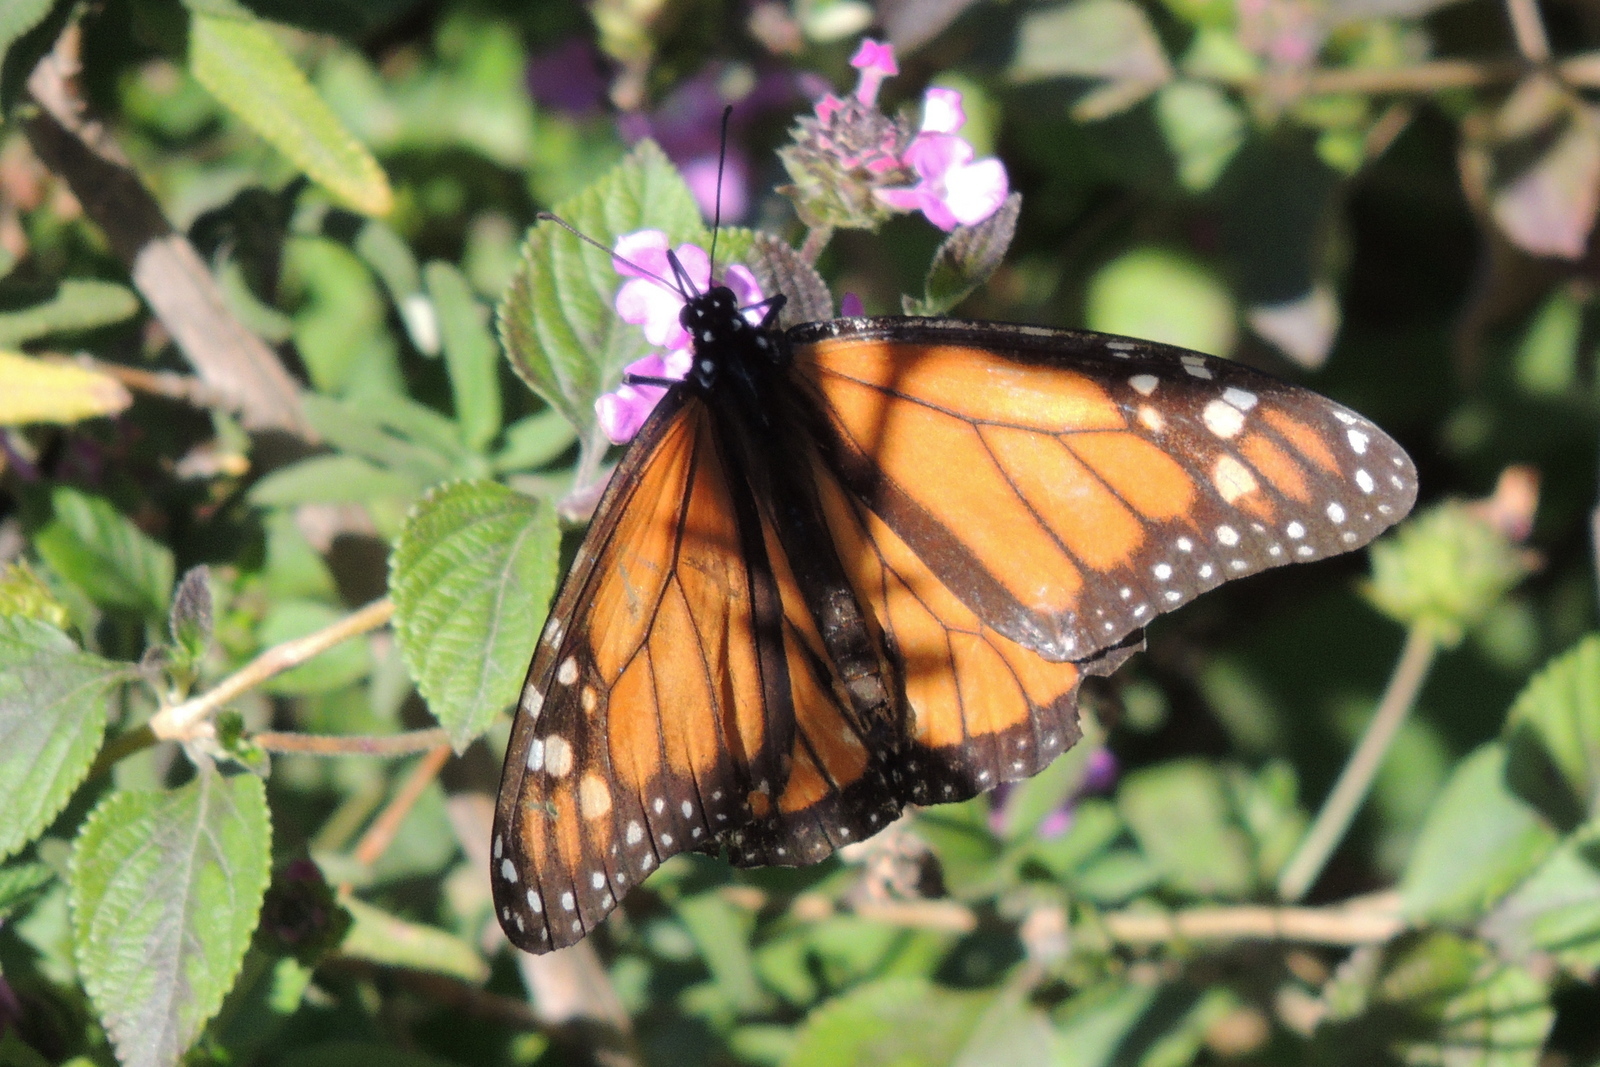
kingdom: Animalia
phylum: Arthropoda
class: Insecta
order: Lepidoptera
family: Nymphalidae
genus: Danaus
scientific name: Danaus plexippus
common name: Monarch
